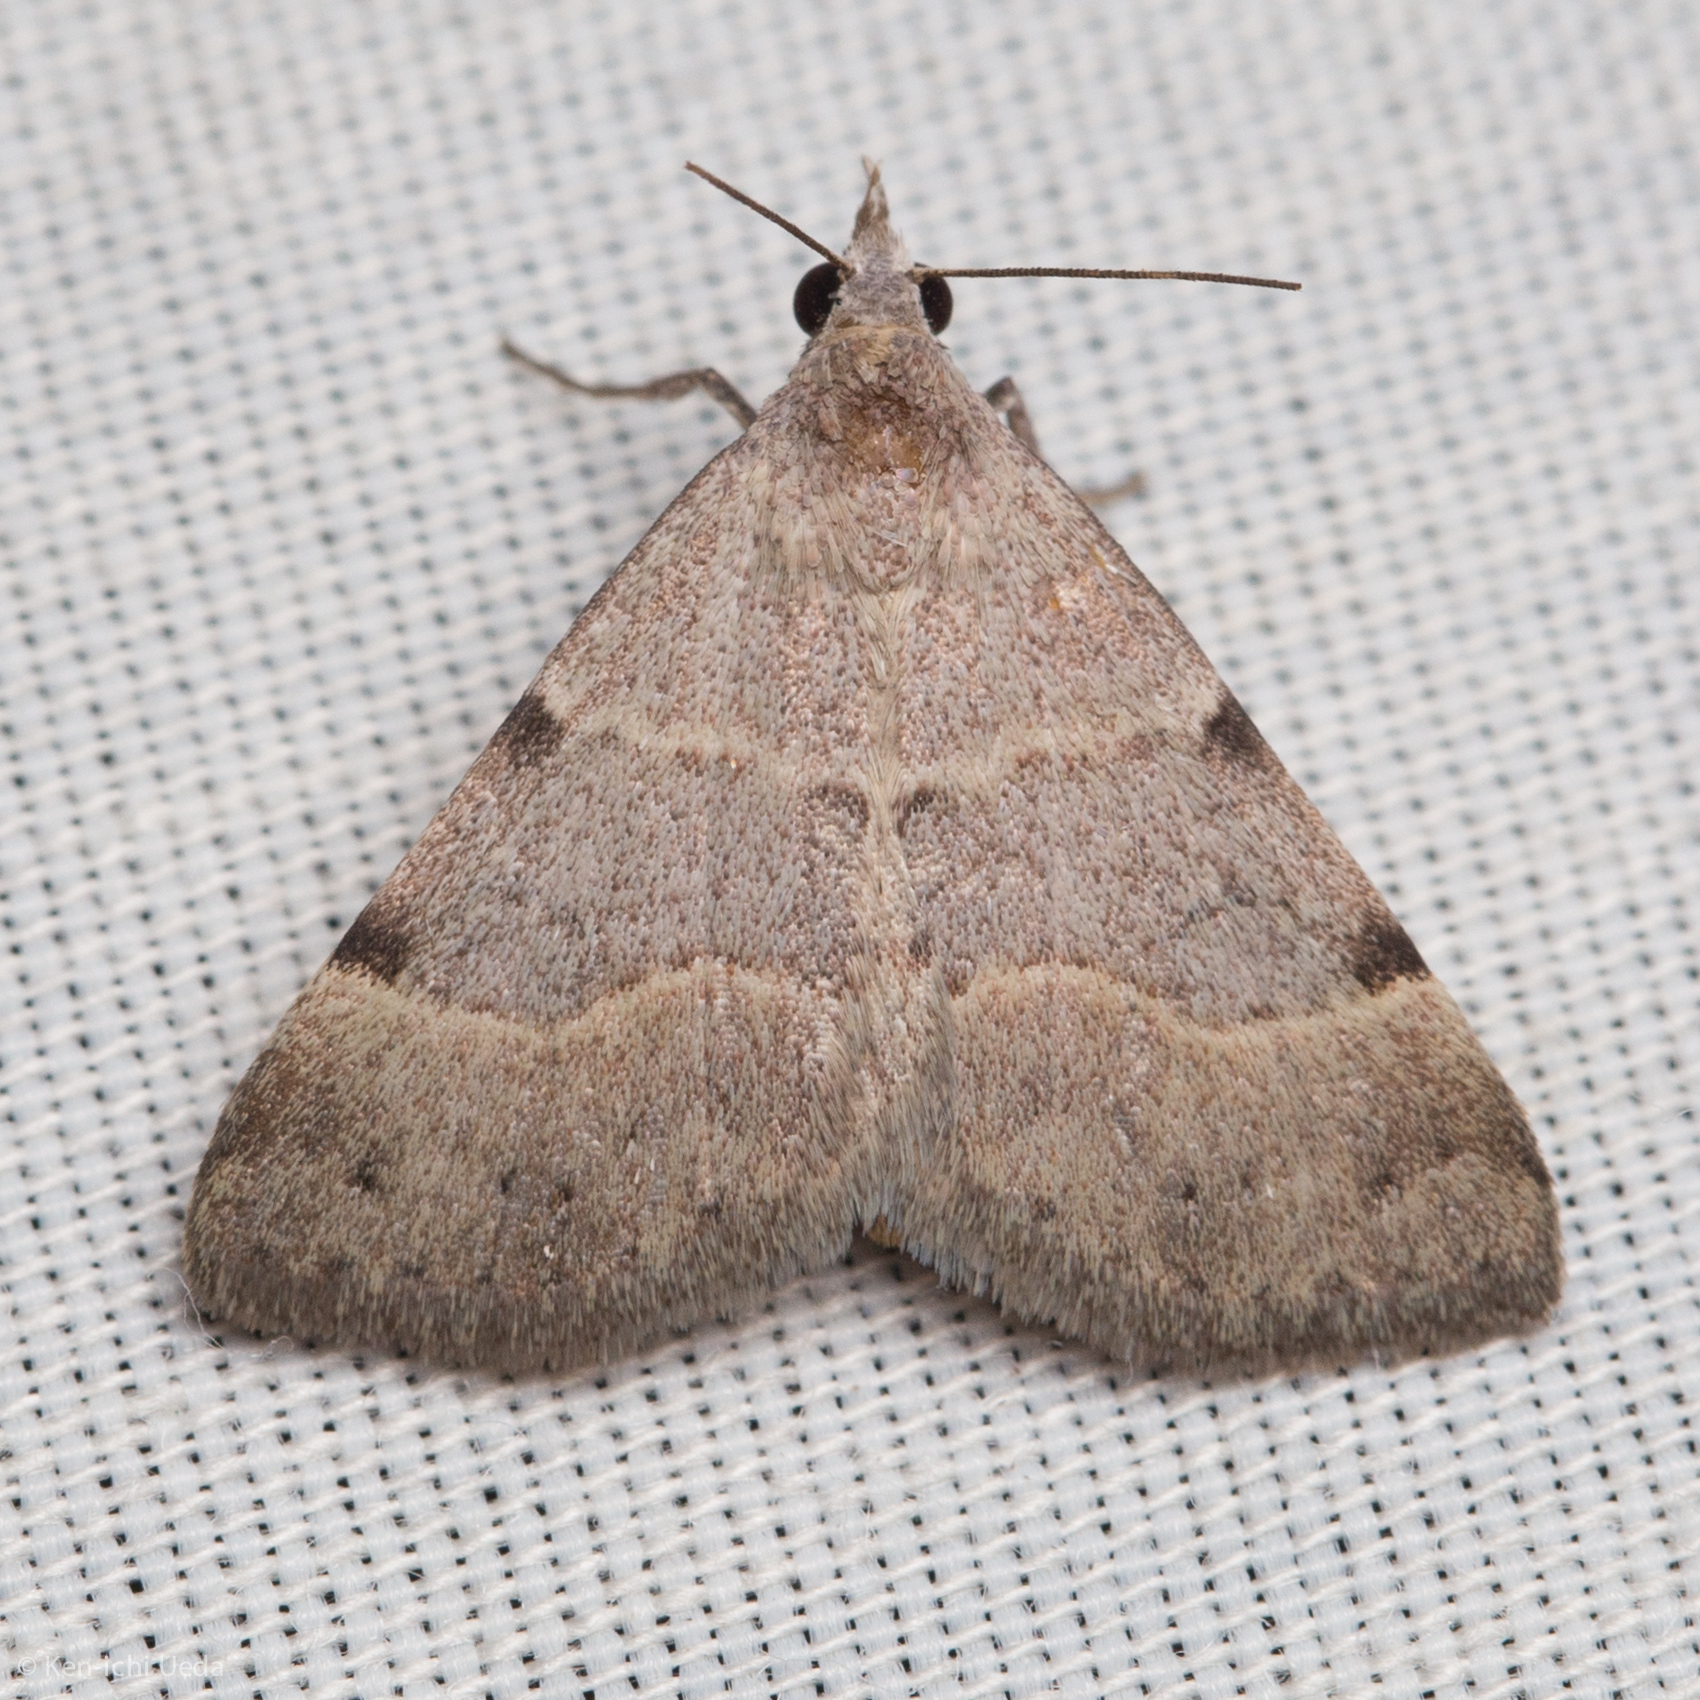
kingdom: Animalia
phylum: Arthropoda
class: Insecta
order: Lepidoptera
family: Erebidae
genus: Hemeroplanis
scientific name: Hemeroplanis historialis
